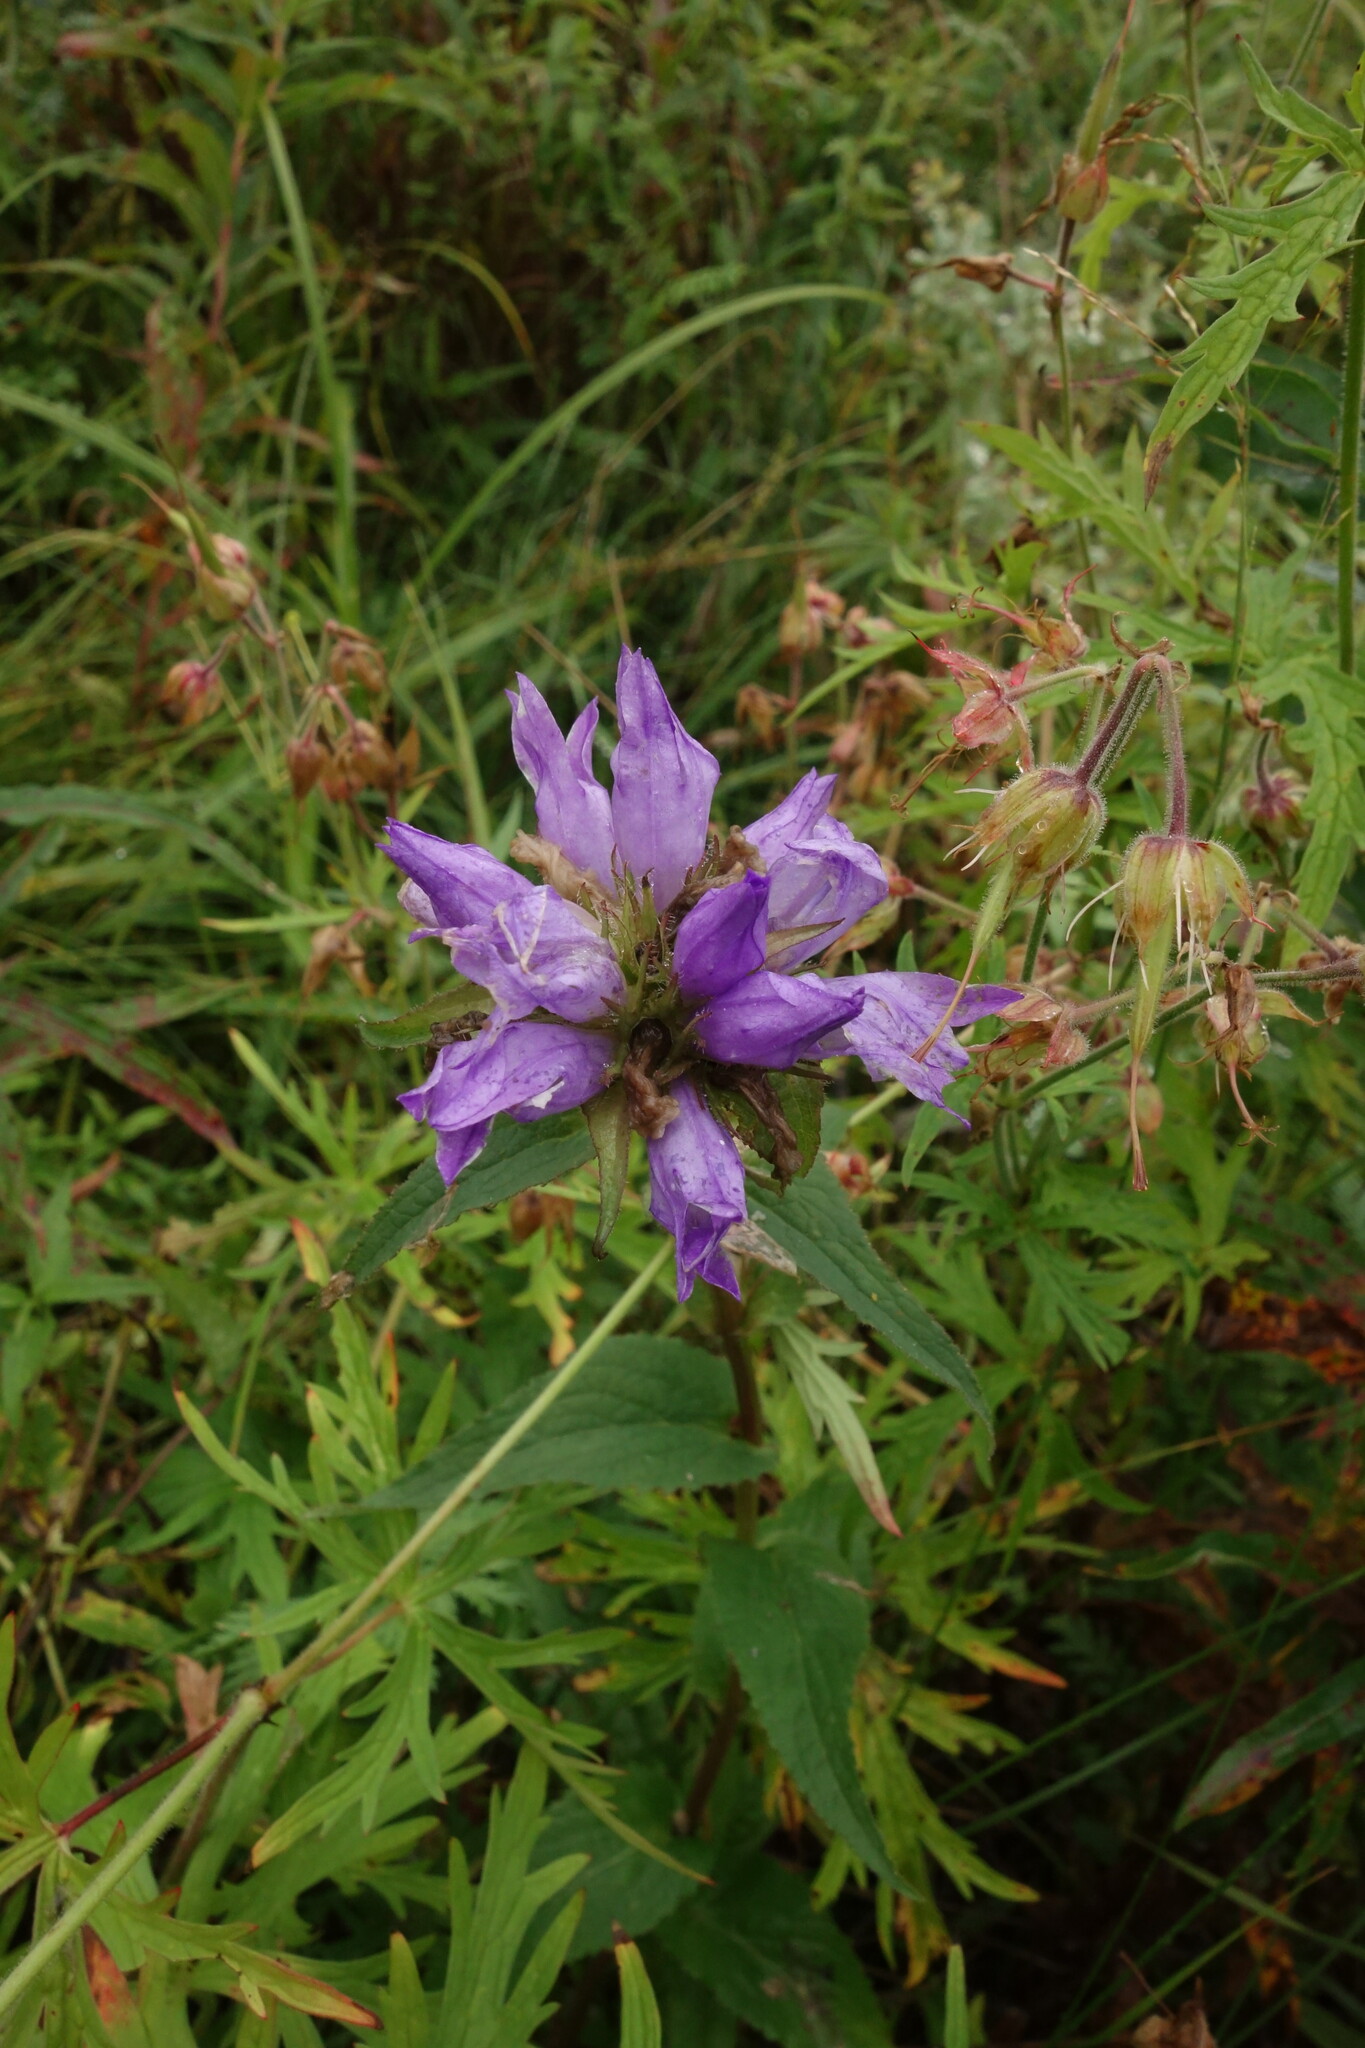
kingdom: Plantae
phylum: Tracheophyta
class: Magnoliopsida
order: Asterales
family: Campanulaceae
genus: Campanula
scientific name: Campanula glomerata
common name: Clustered bellflower
